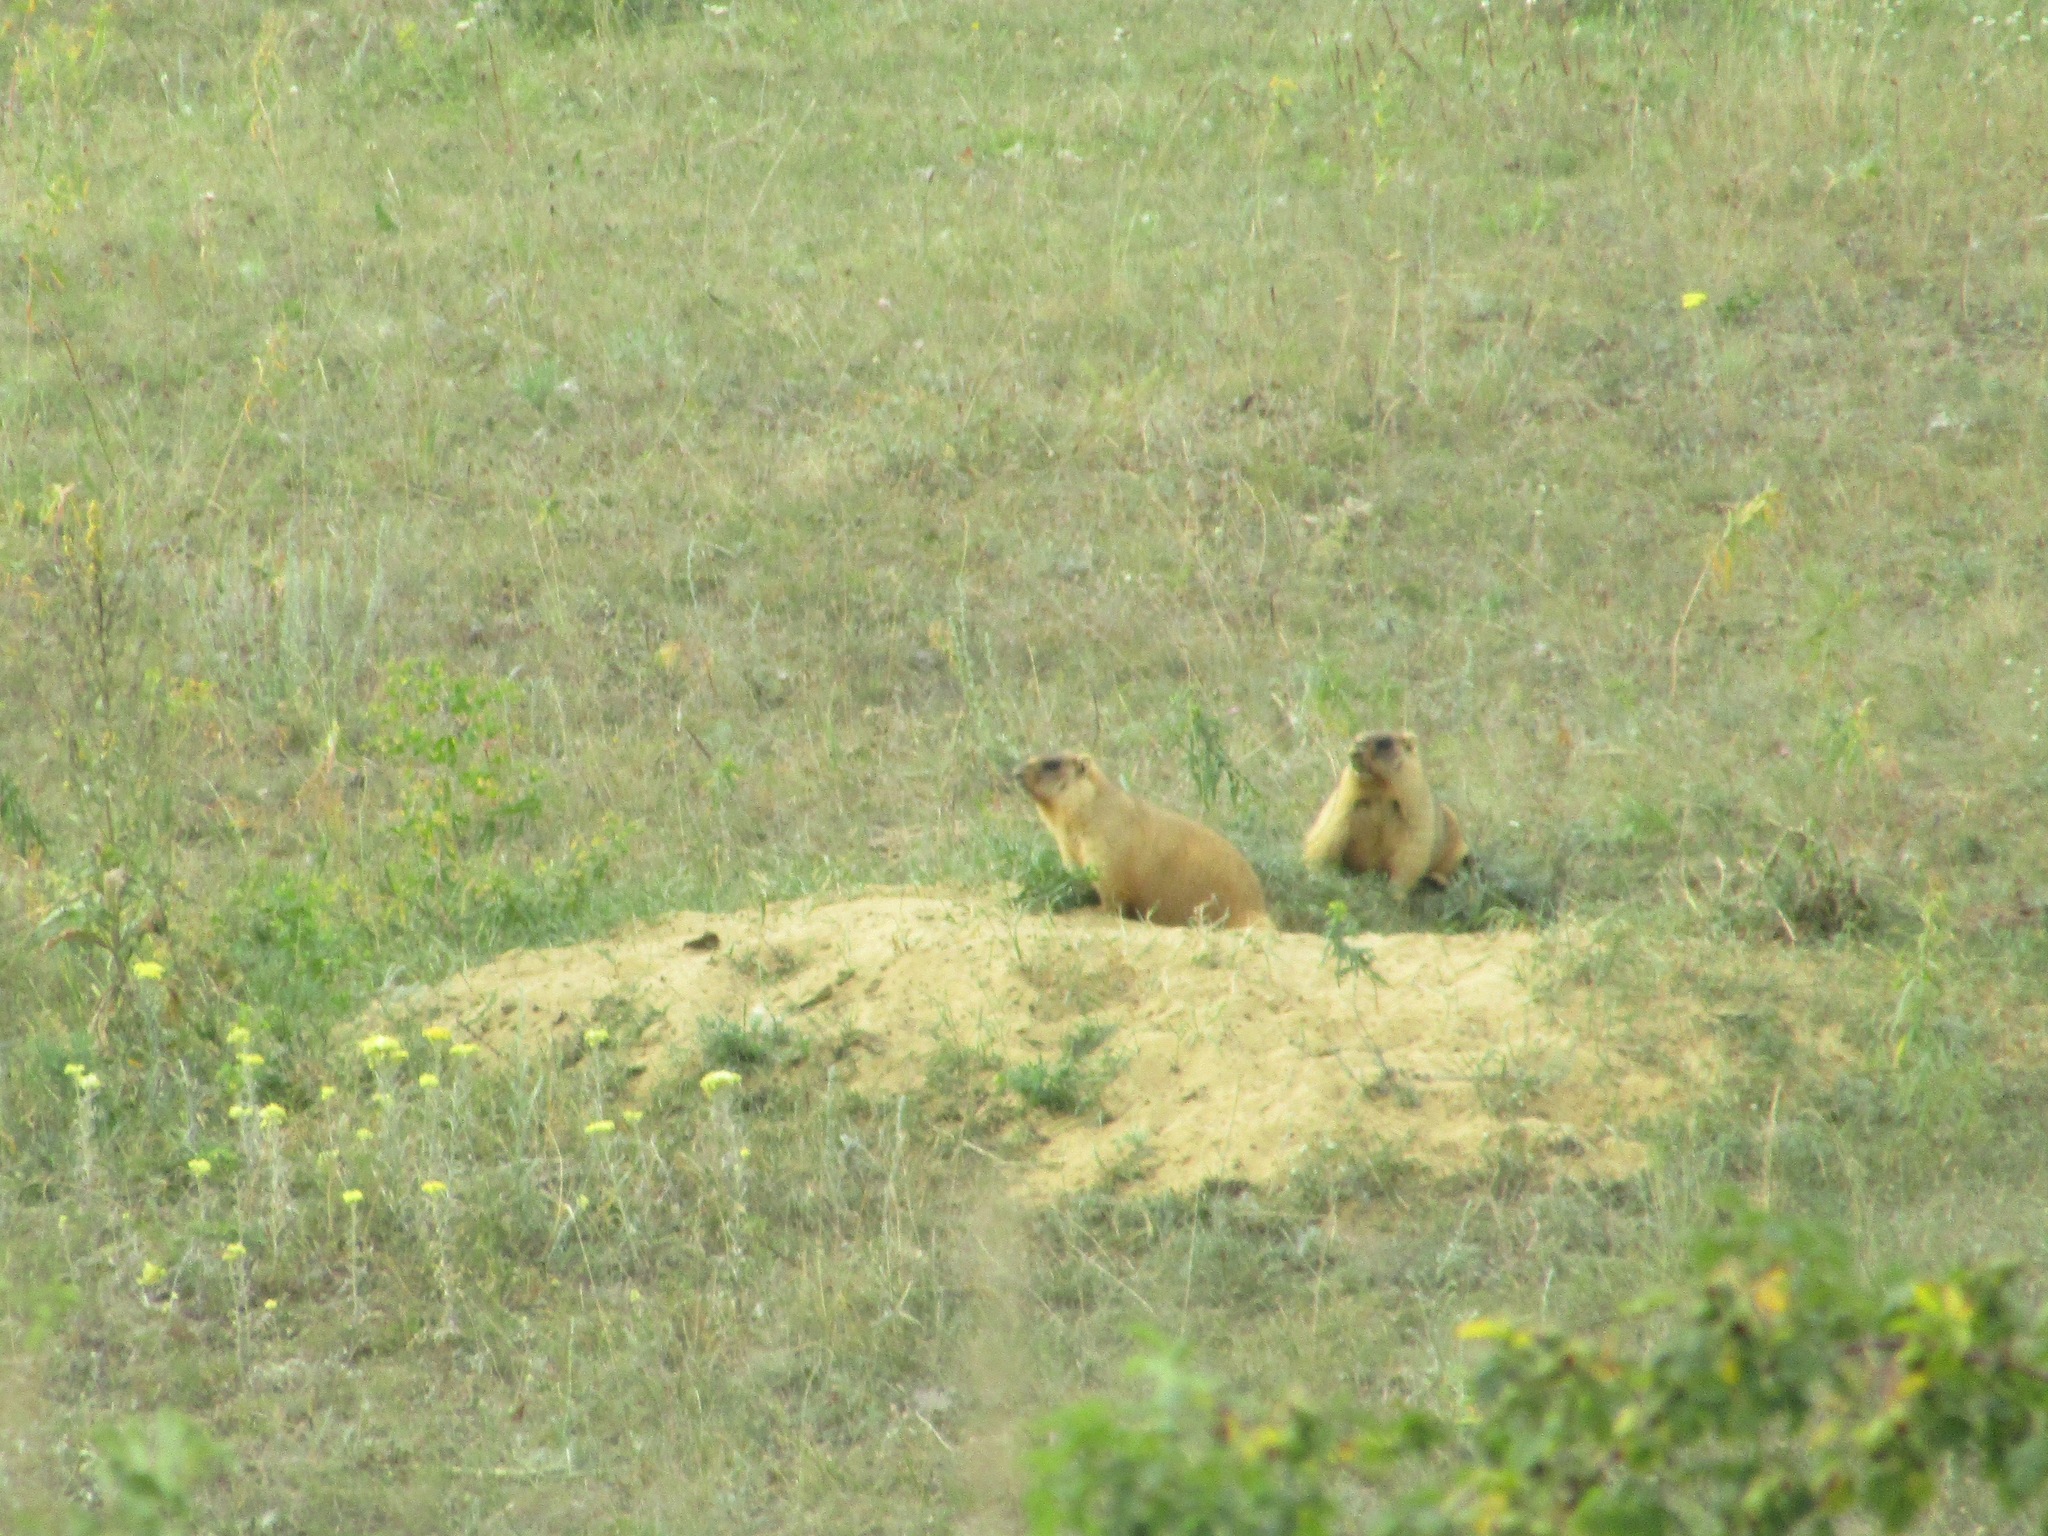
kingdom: Animalia
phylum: Chordata
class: Mammalia
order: Rodentia
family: Sciuridae
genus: Marmota
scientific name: Marmota bobak
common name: Bobak marmot
